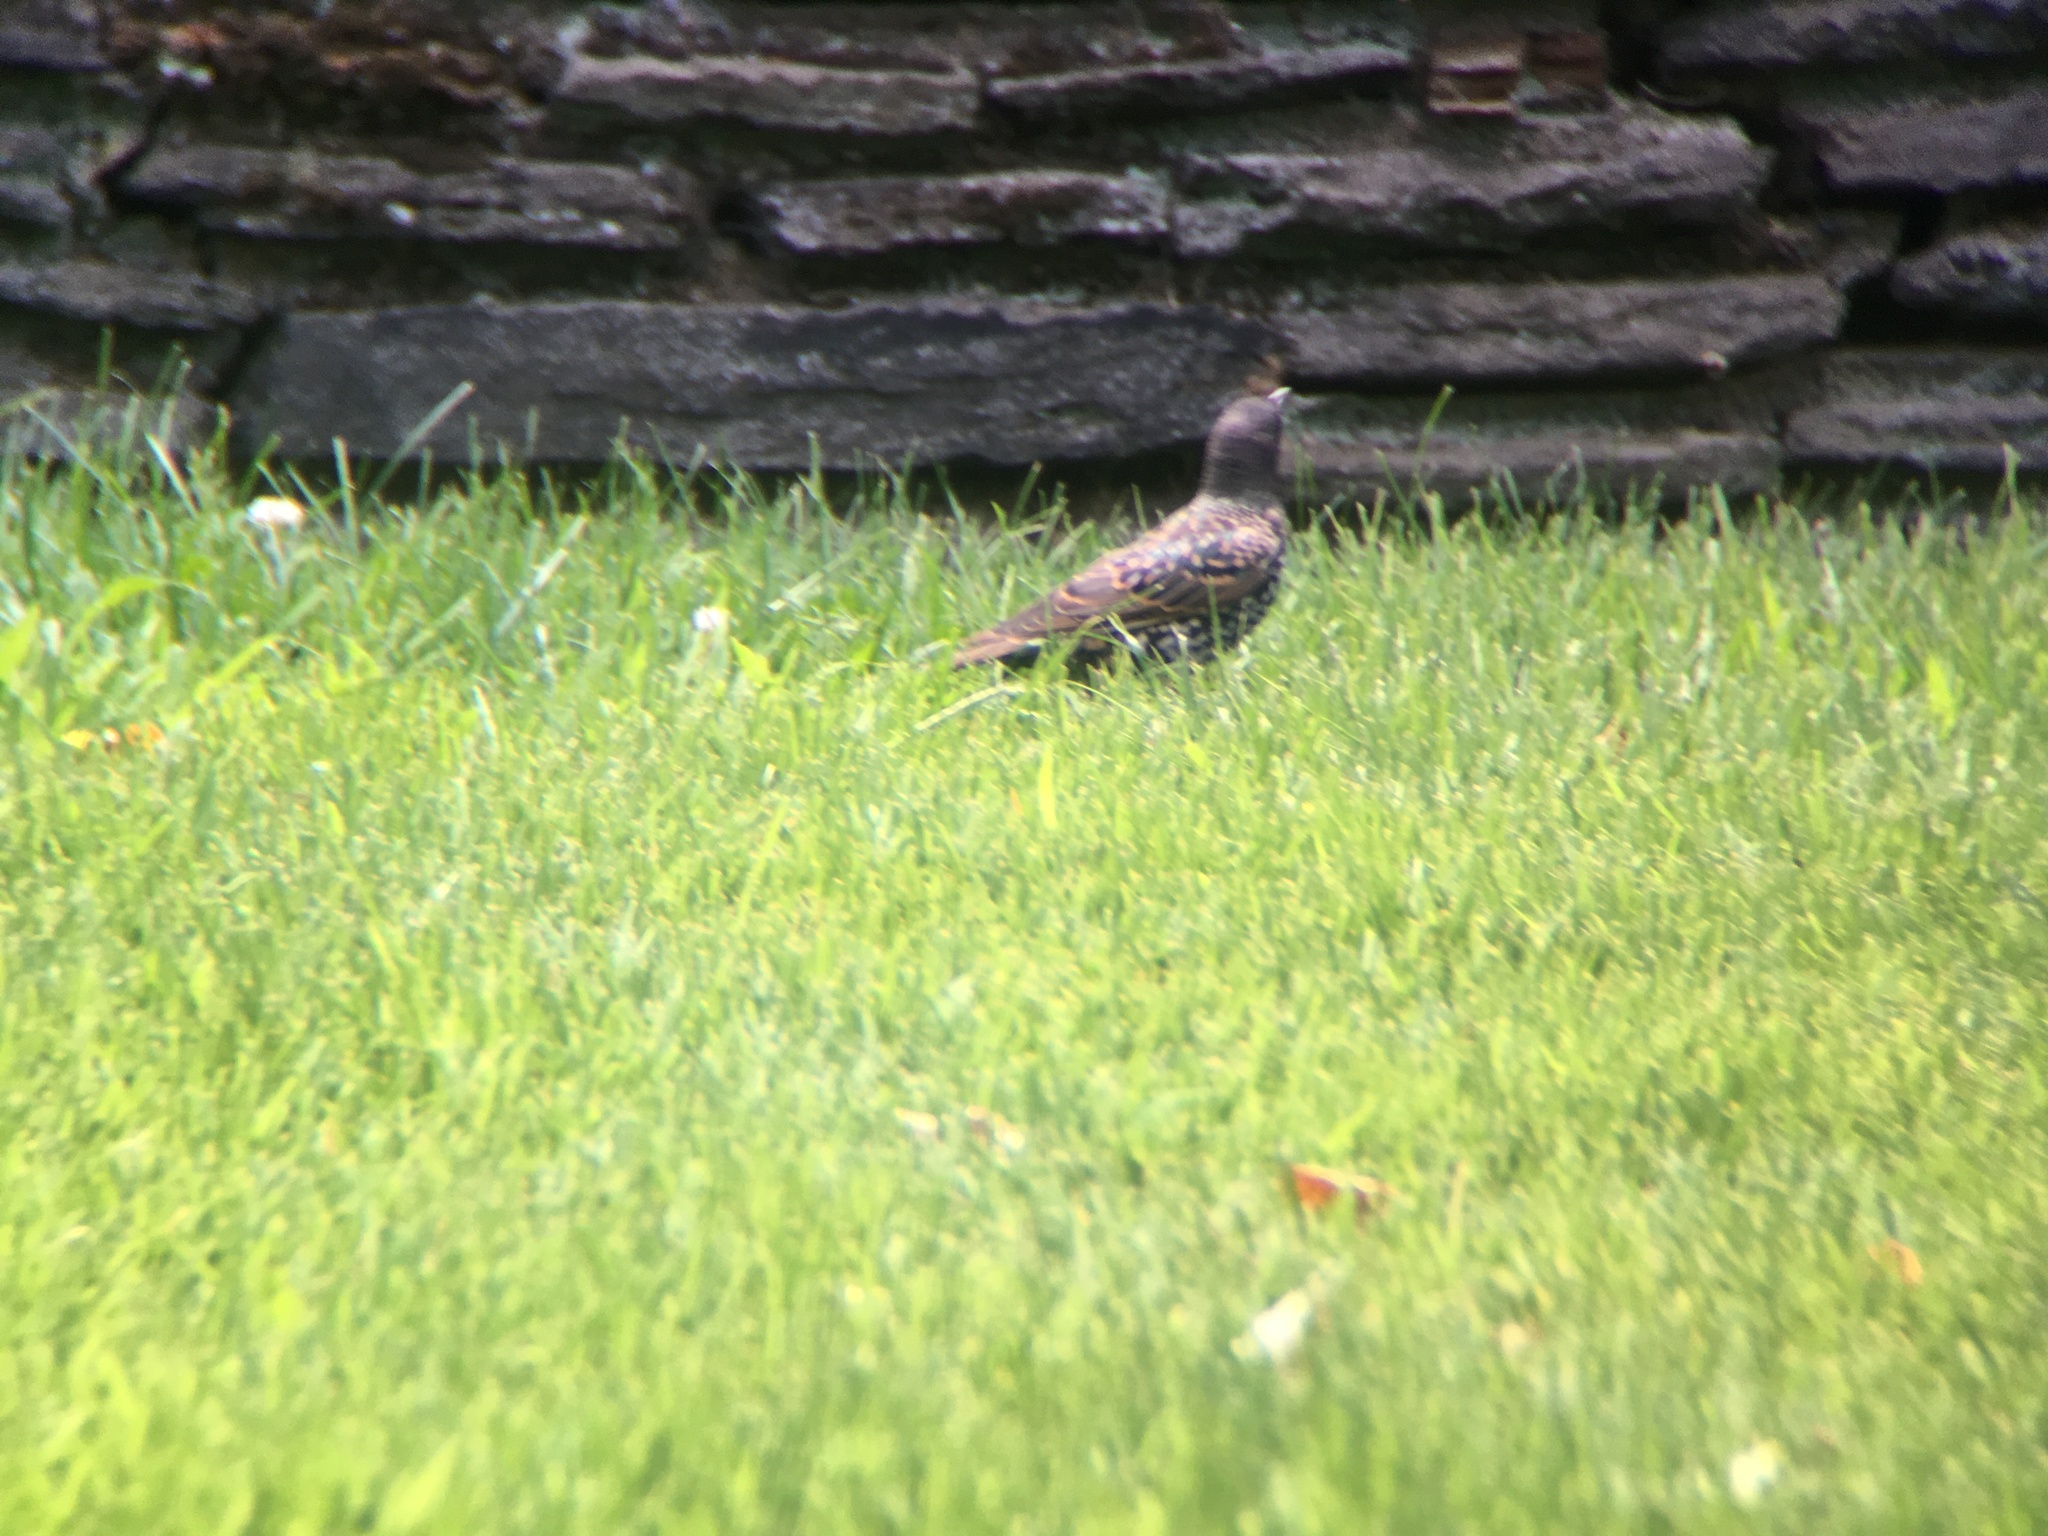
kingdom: Animalia
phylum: Chordata
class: Aves
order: Passeriformes
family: Sturnidae
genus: Sturnus
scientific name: Sturnus vulgaris
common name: Common starling
